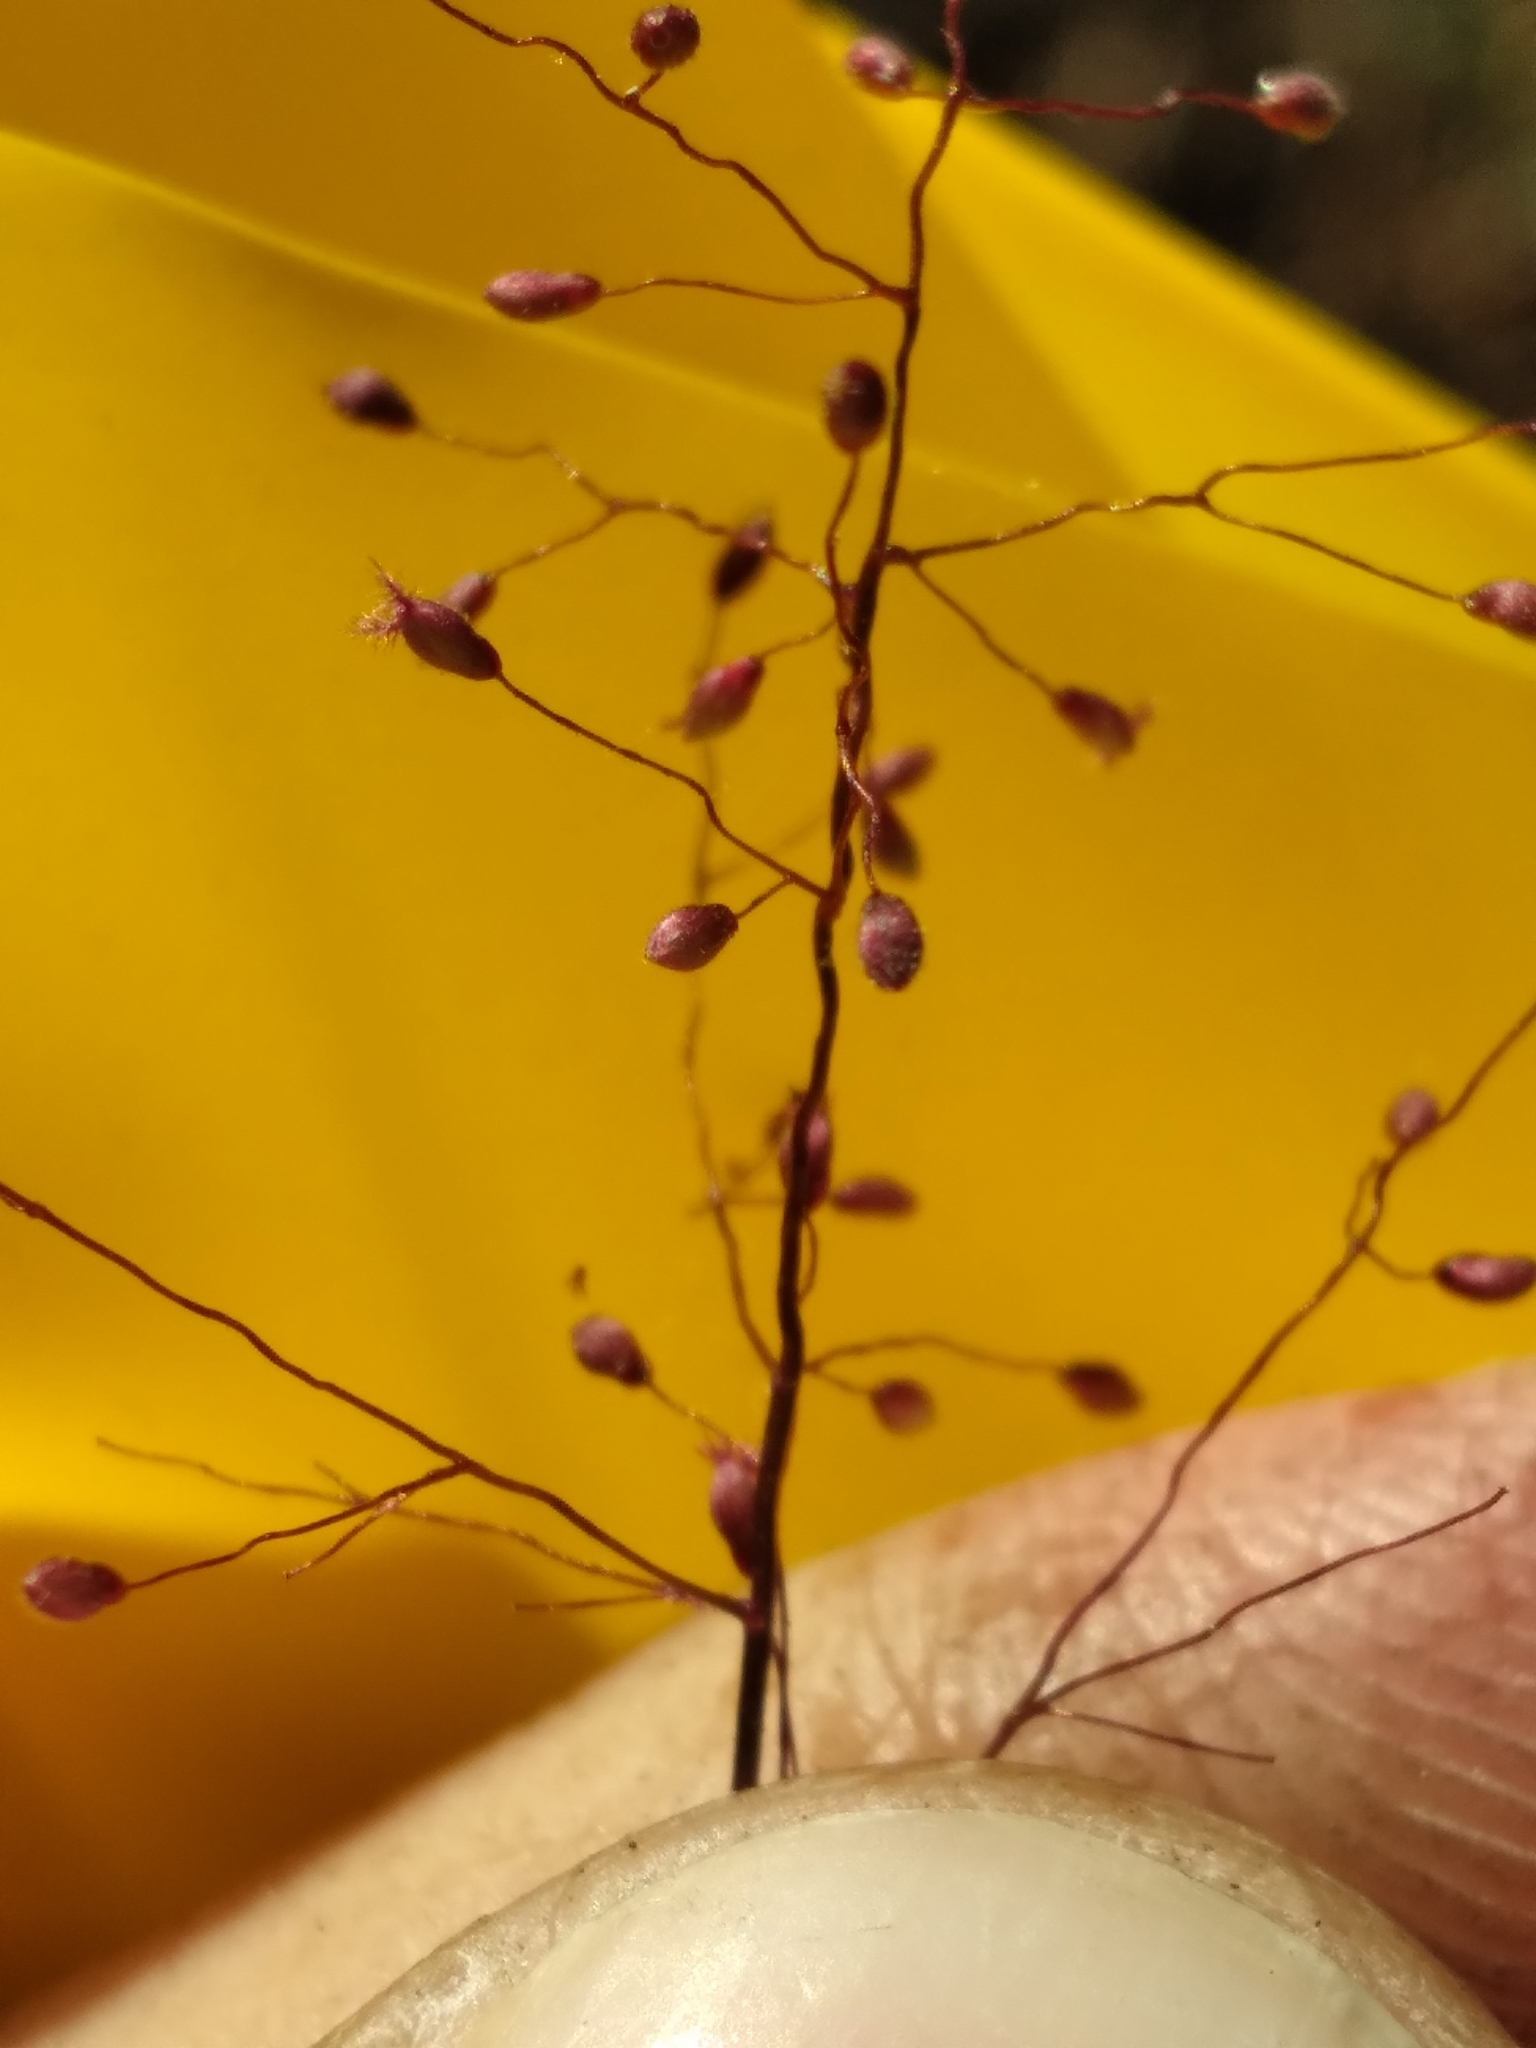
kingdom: Plantae
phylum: Tracheophyta
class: Liliopsida
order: Poales
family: Poaceae
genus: Dichanthelium
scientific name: Dichanthelium breve
